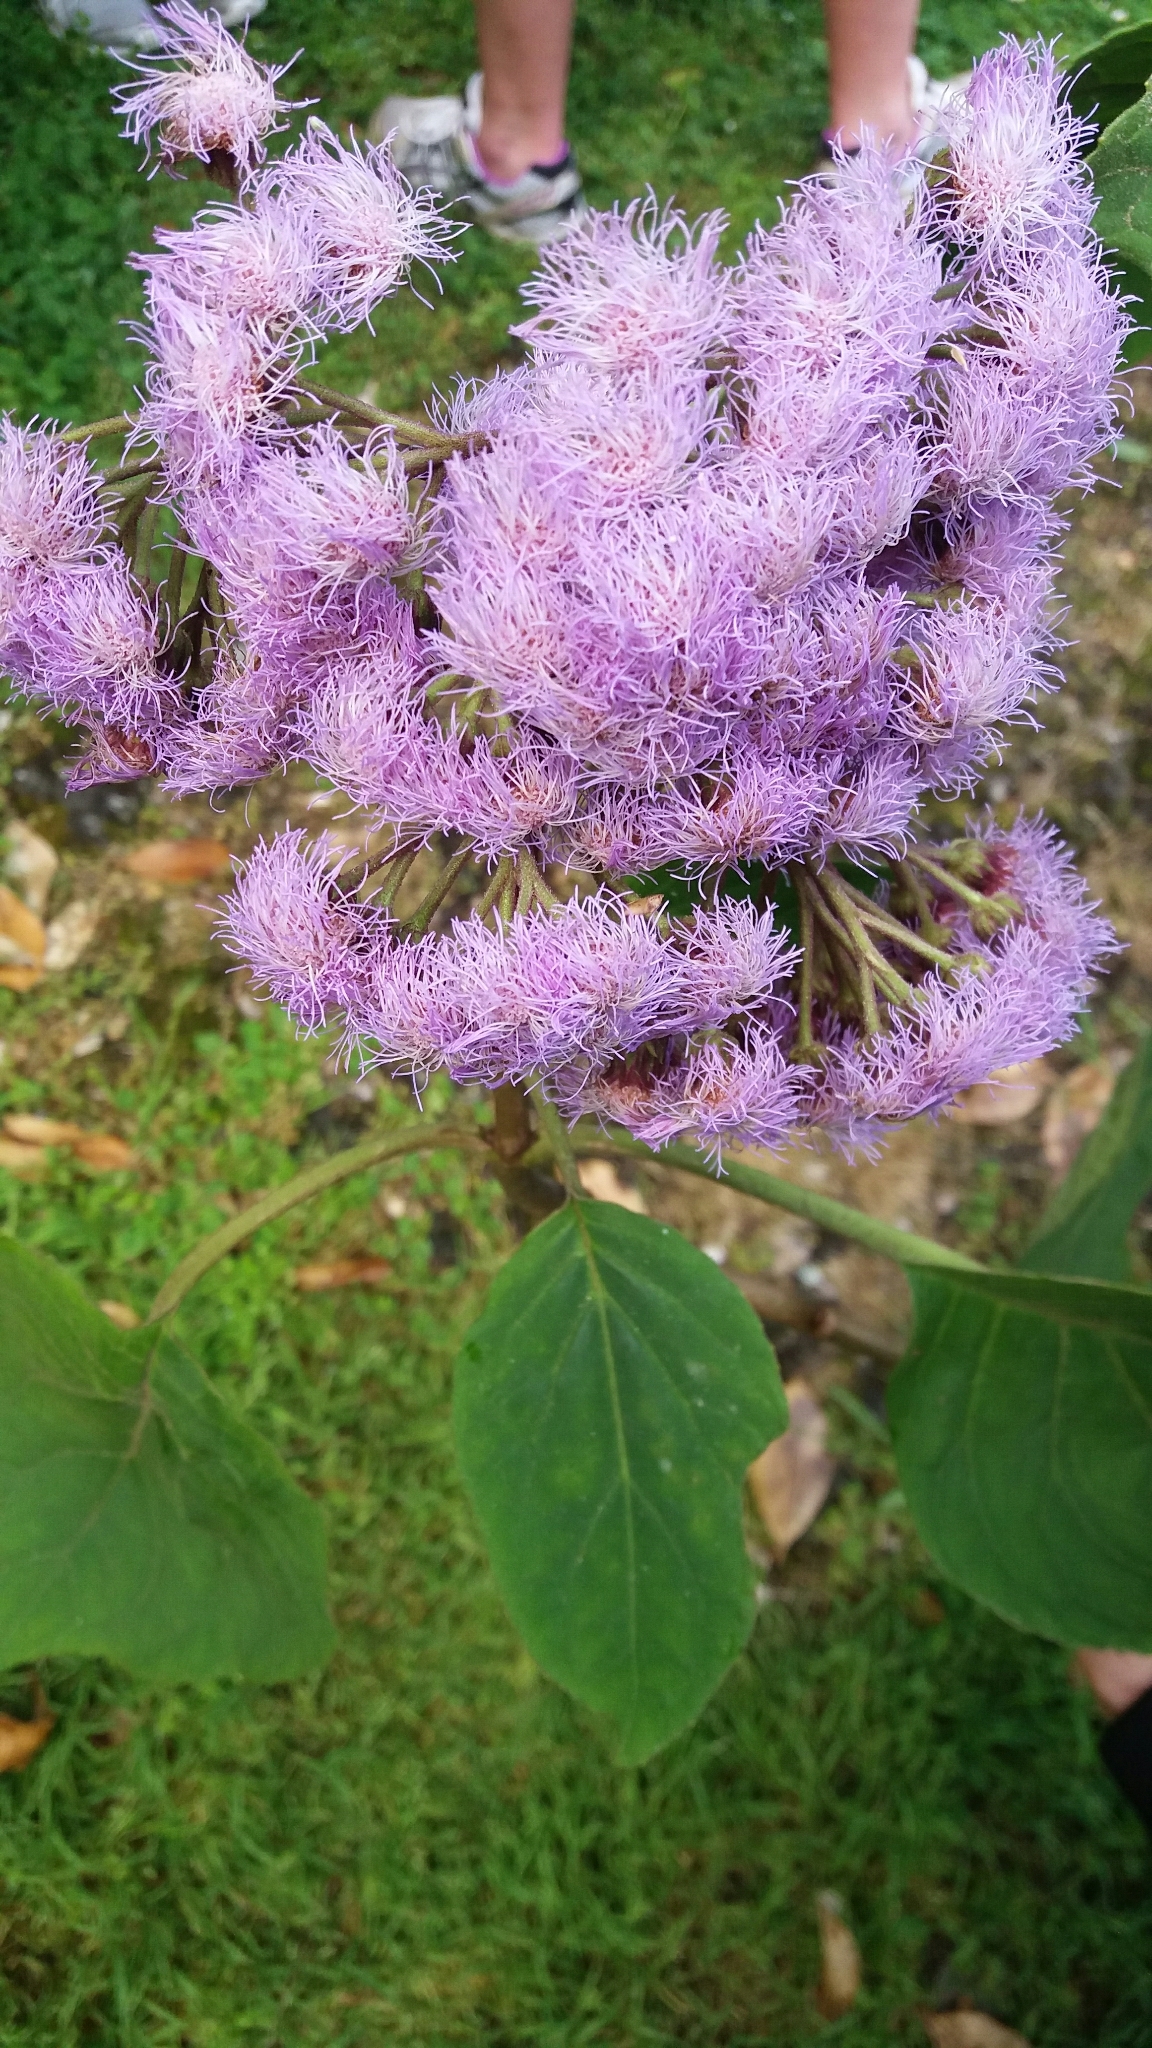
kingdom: Plantae
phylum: Tracheophyta
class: Magnoliopsida
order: Asterales
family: Asteraceae
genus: Bartlettina
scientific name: Bartlettina sordida
